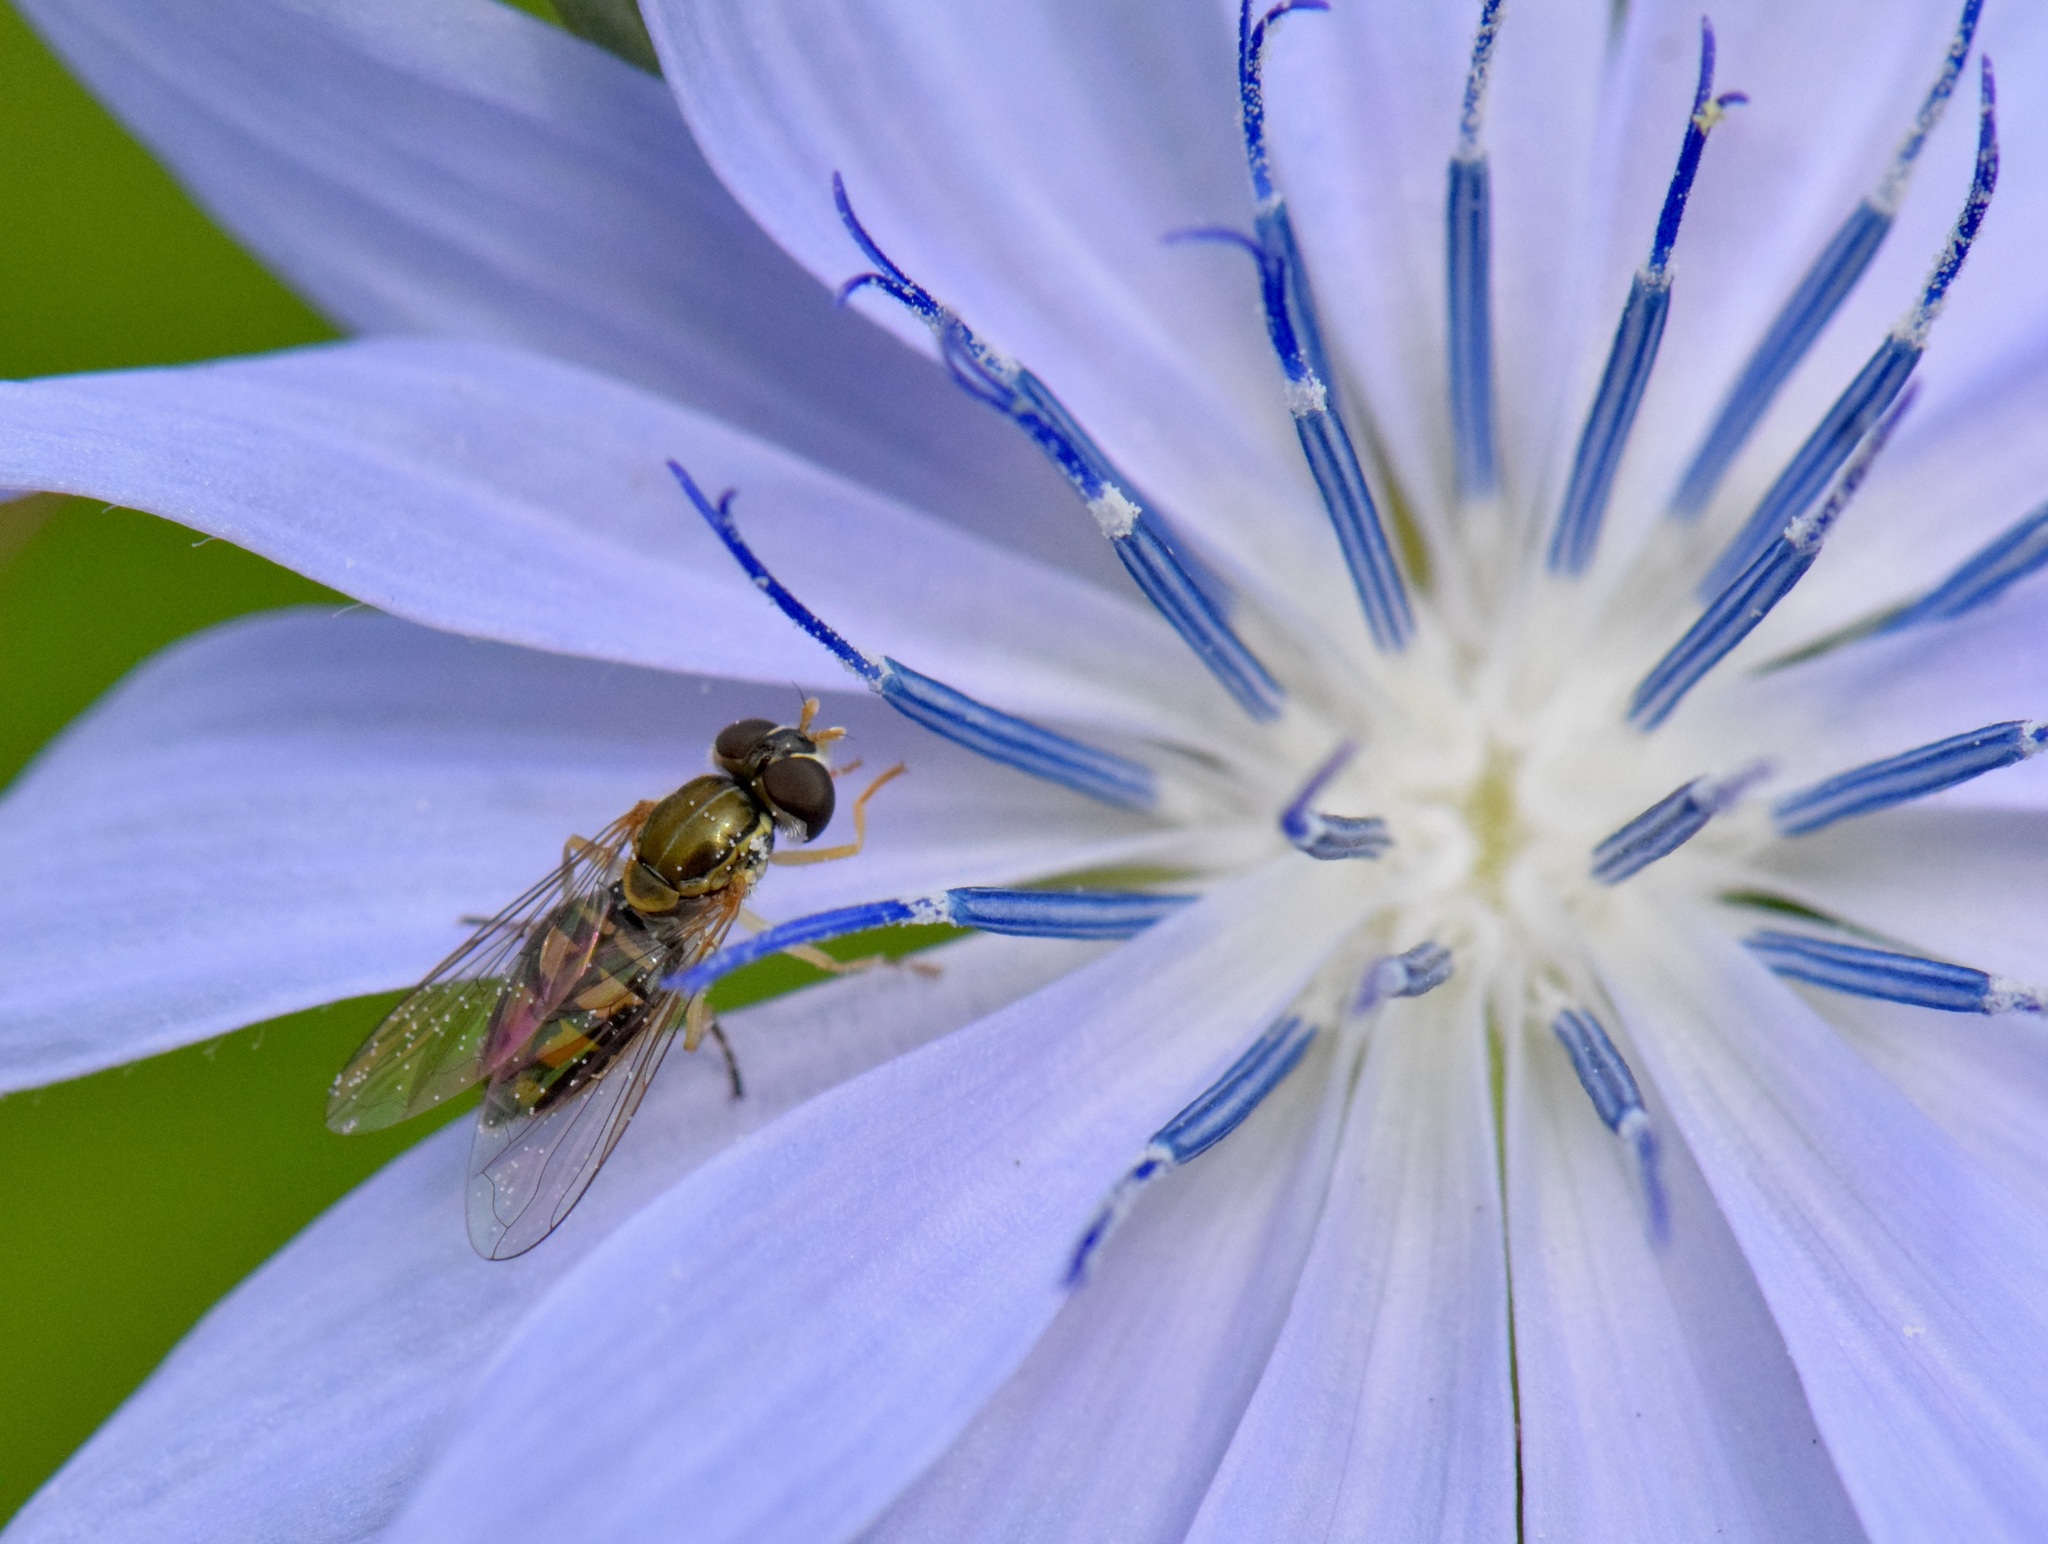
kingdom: Animalia
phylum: Arthropoda
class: Insecta
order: Diptera
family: Syrphidae
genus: Toxomerus
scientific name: Toxomerus marginatus
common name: Syrphid fly
